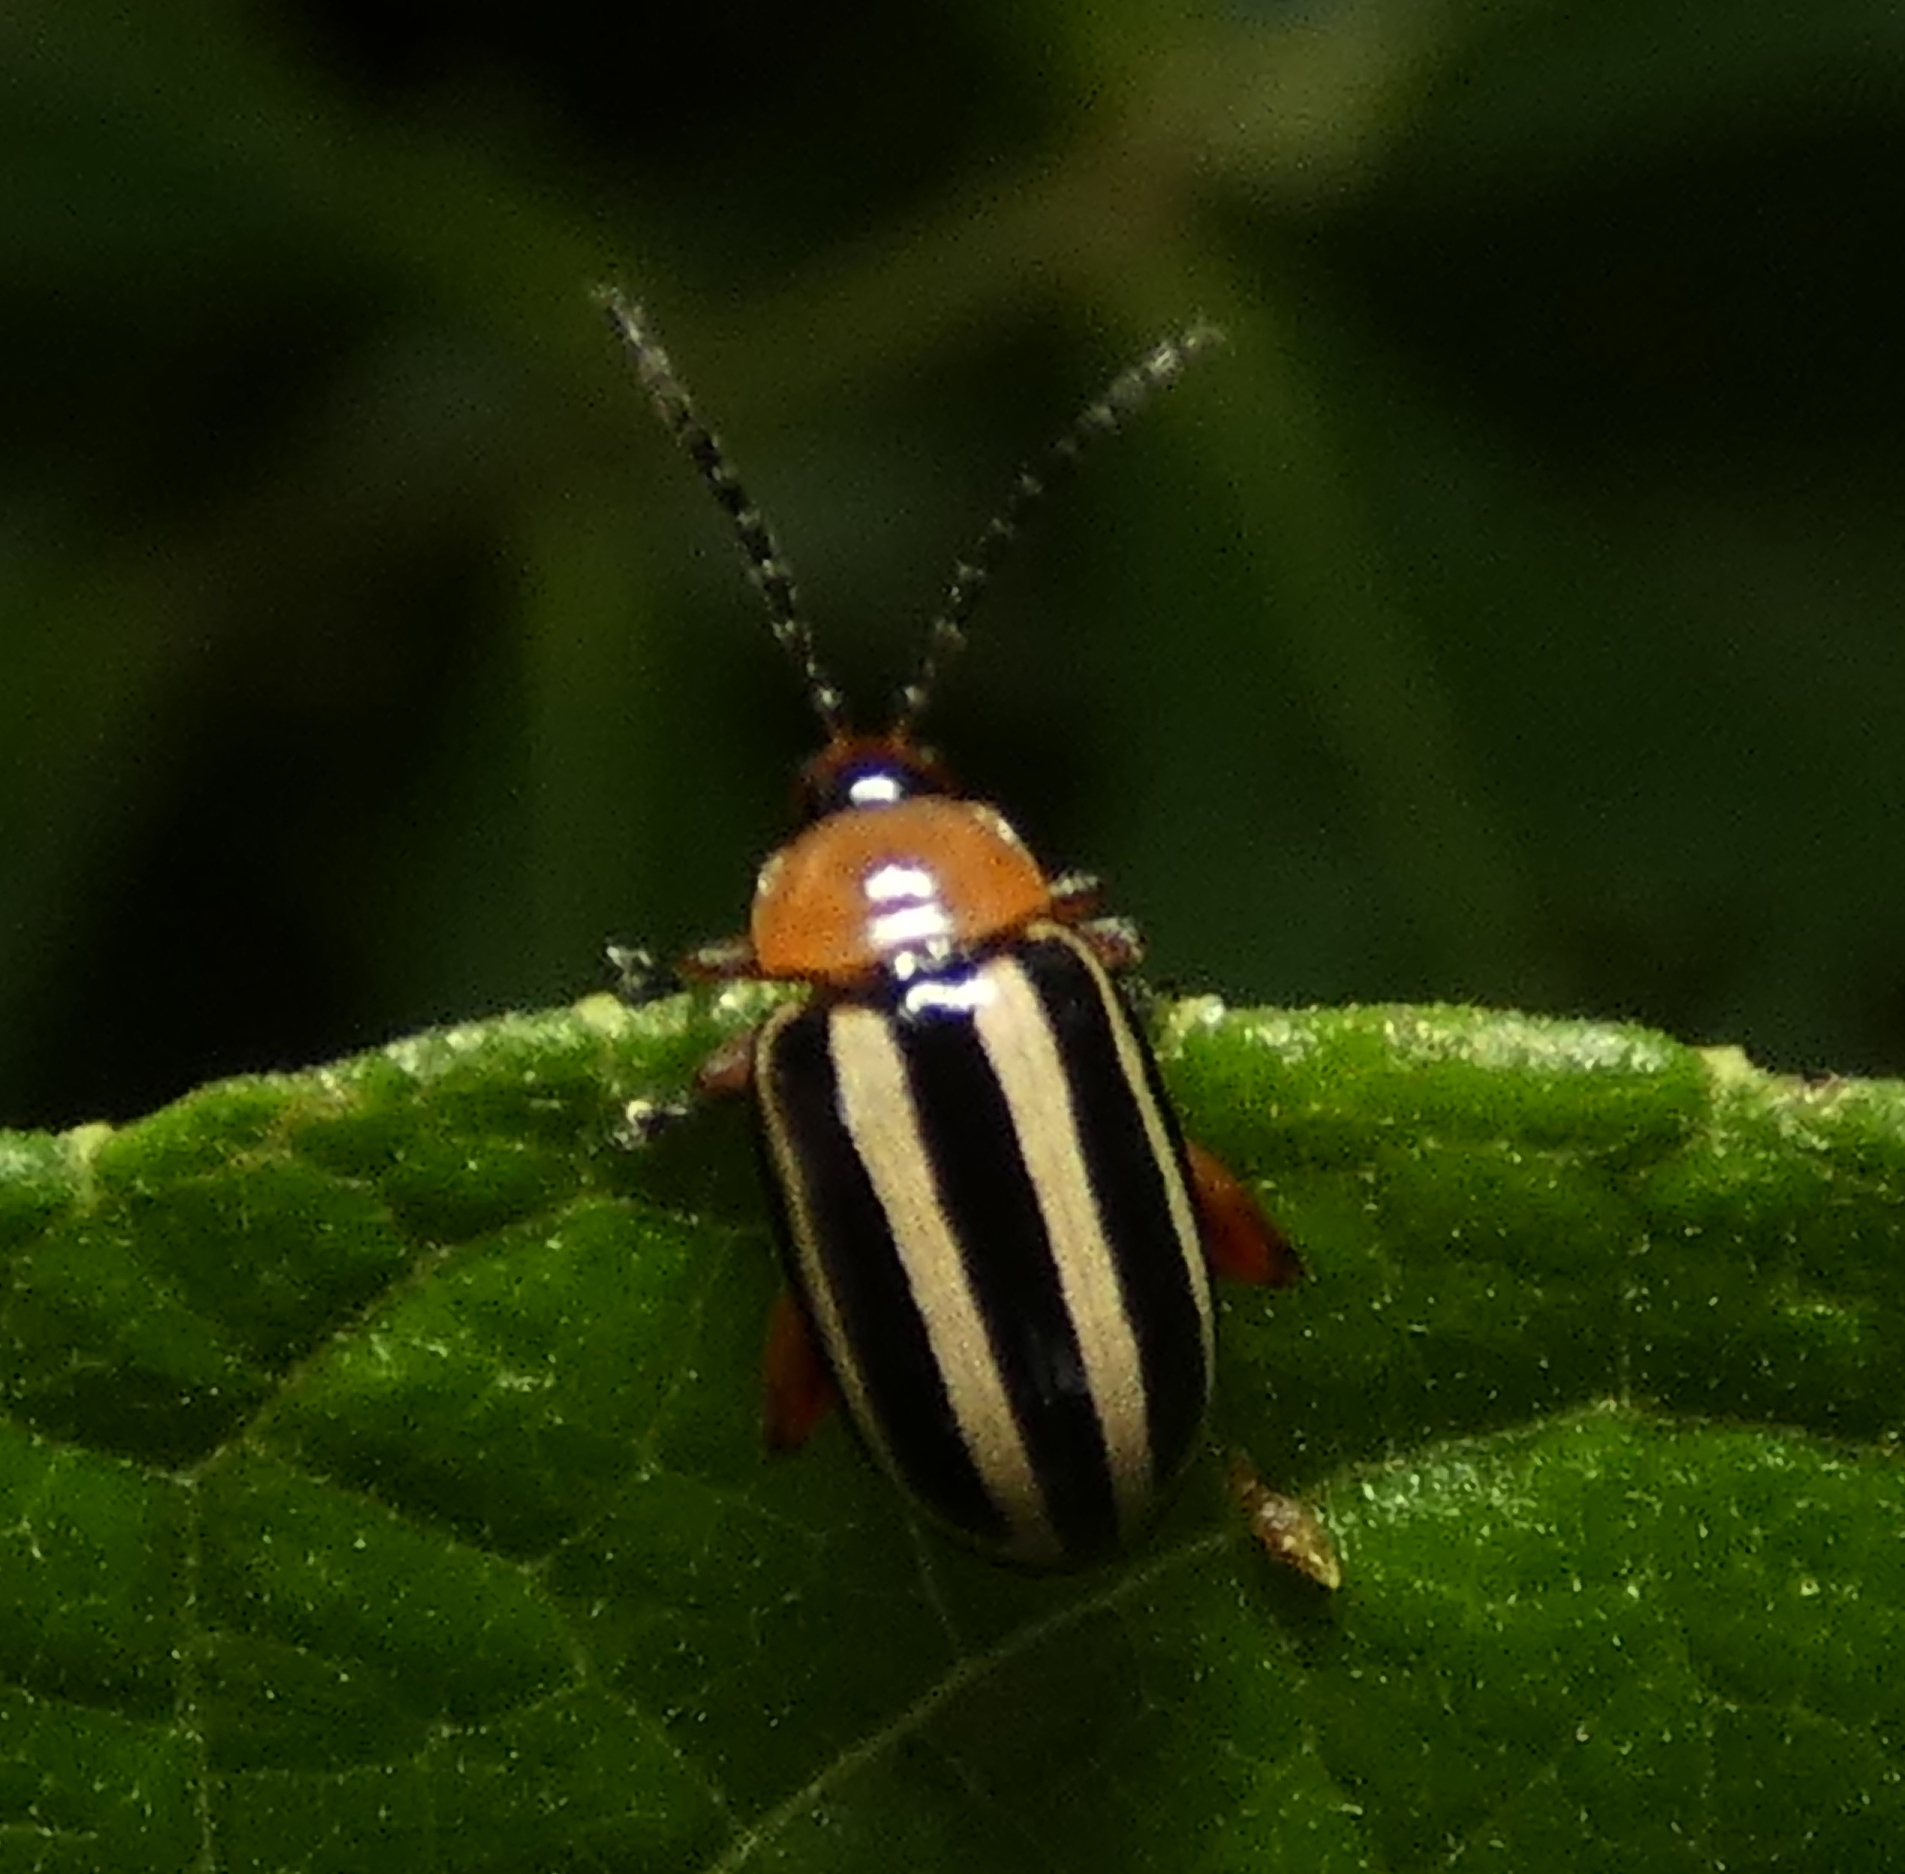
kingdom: Animalia
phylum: Arthropoda
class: Insecta
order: Coleoptera
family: Chrysomelidae
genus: Disonycha
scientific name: Disonycha glabrata
